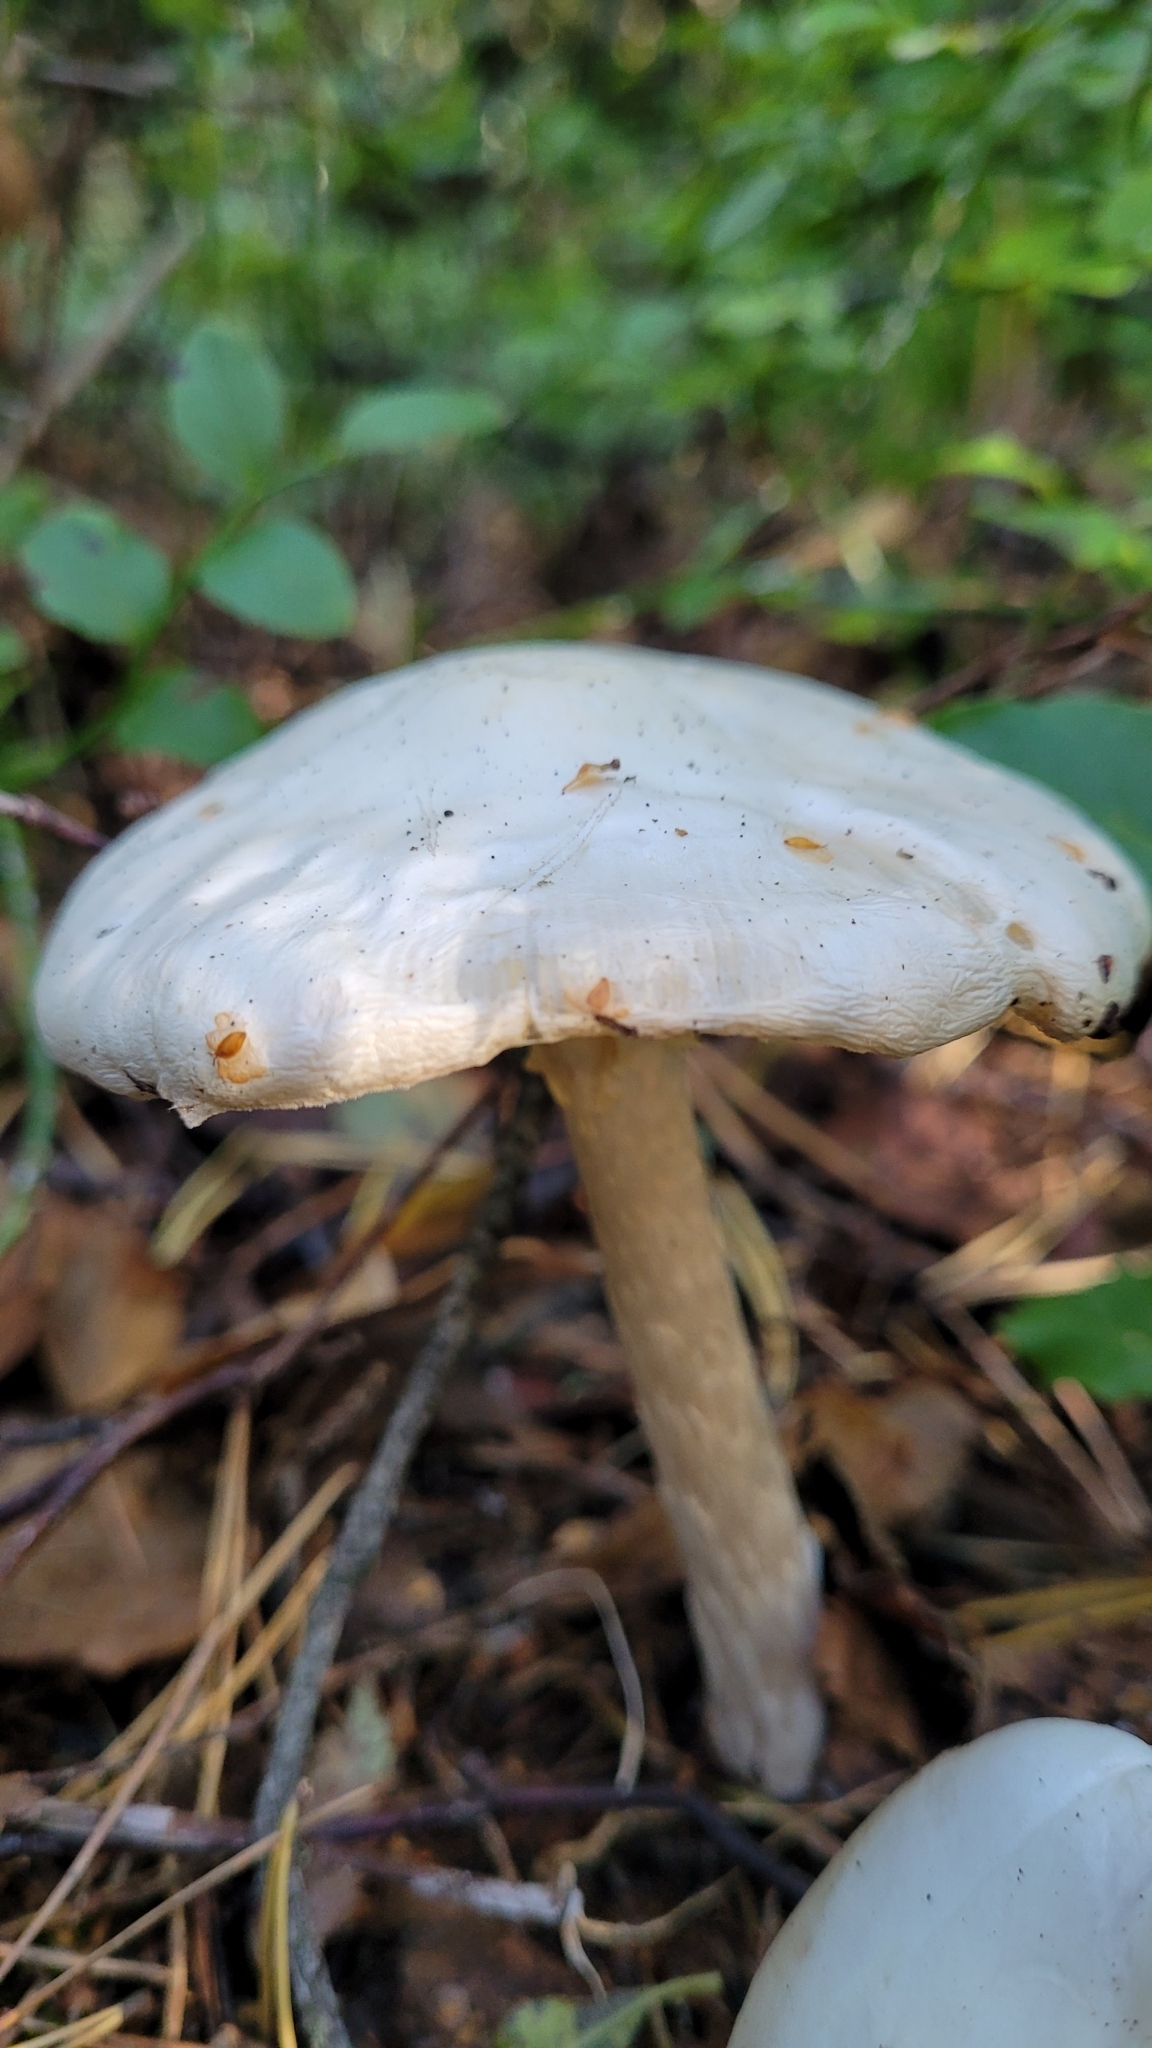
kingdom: Fungi
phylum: Basidiomycota
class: Agaricomycetes
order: Agaricales
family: Amanitaceae
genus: Amanita
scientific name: Amanita virosa
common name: Destroying angel
